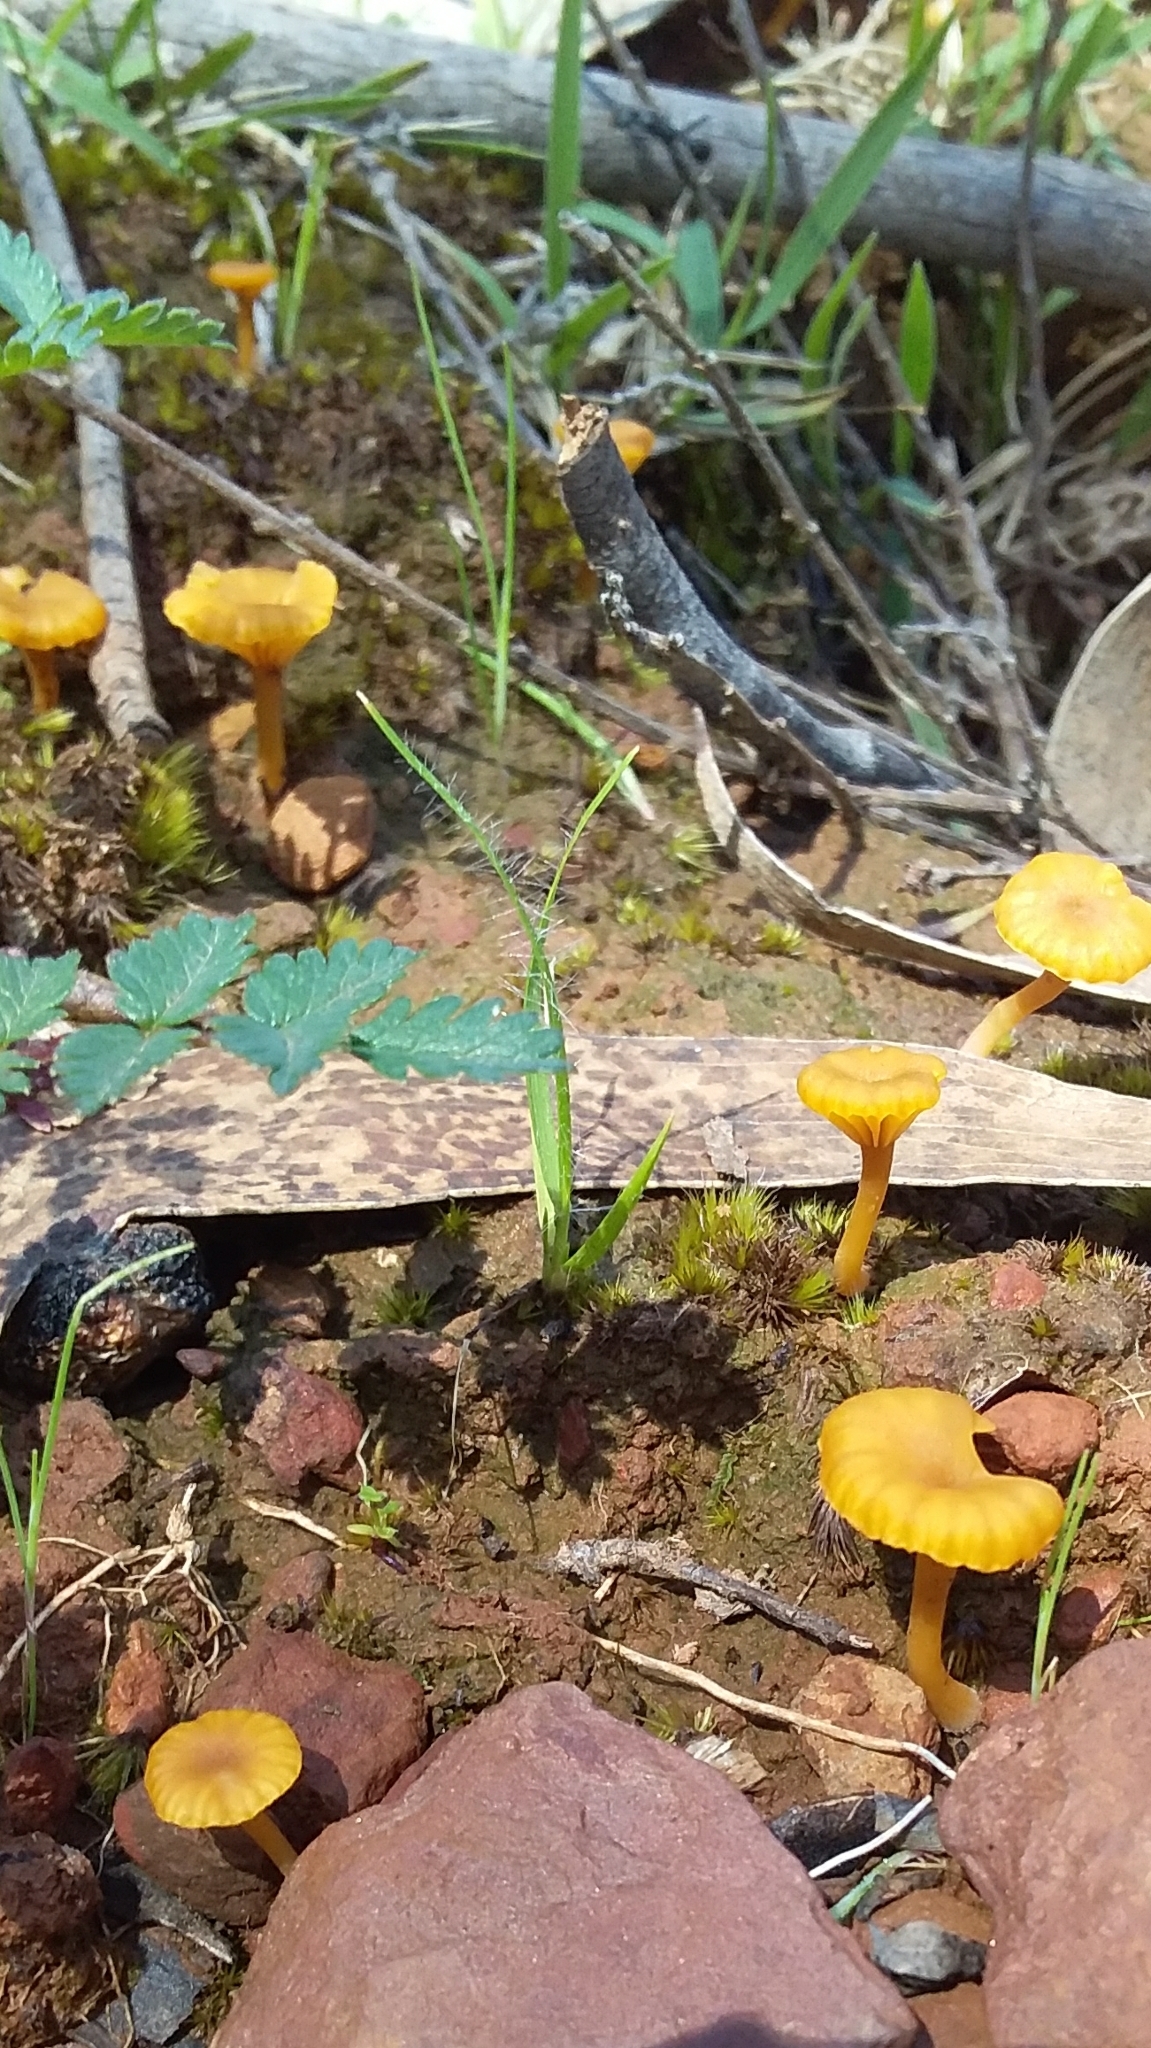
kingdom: Fungi
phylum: Basidiomycota
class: Agaricomycetes
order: Agaricales
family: Hygrophoraceae
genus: Lichenomphalia
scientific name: Lichenomphalia chromacea
